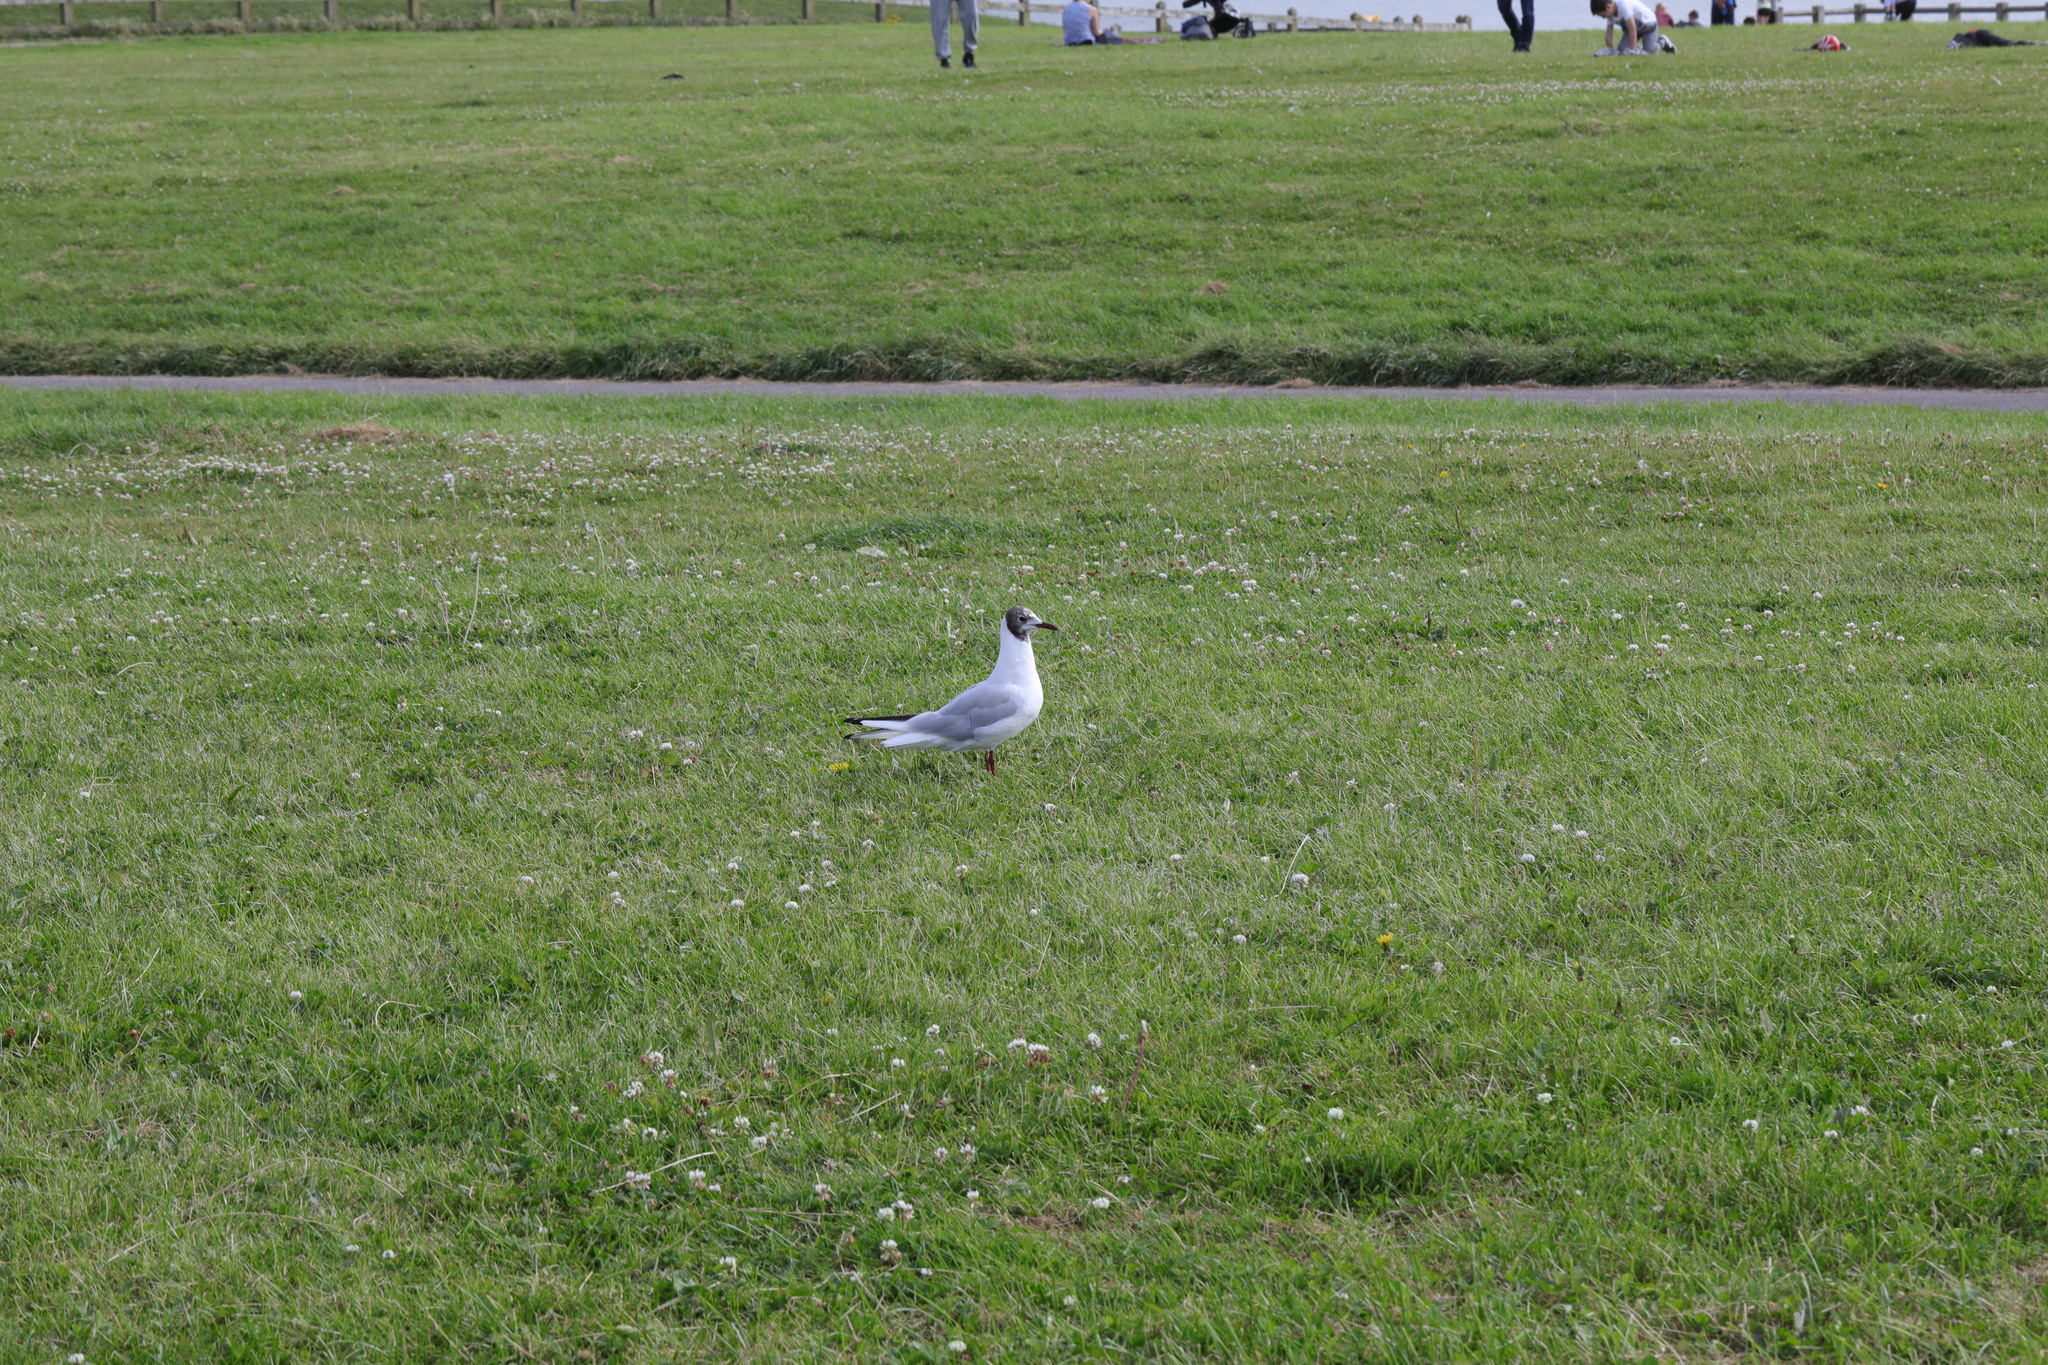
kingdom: Animalia
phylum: Chordata
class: Aves
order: Charadriiformes
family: Laridae
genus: Chroicocephalus
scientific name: Chroicocephalus ridibundus
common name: Black-headed gull
